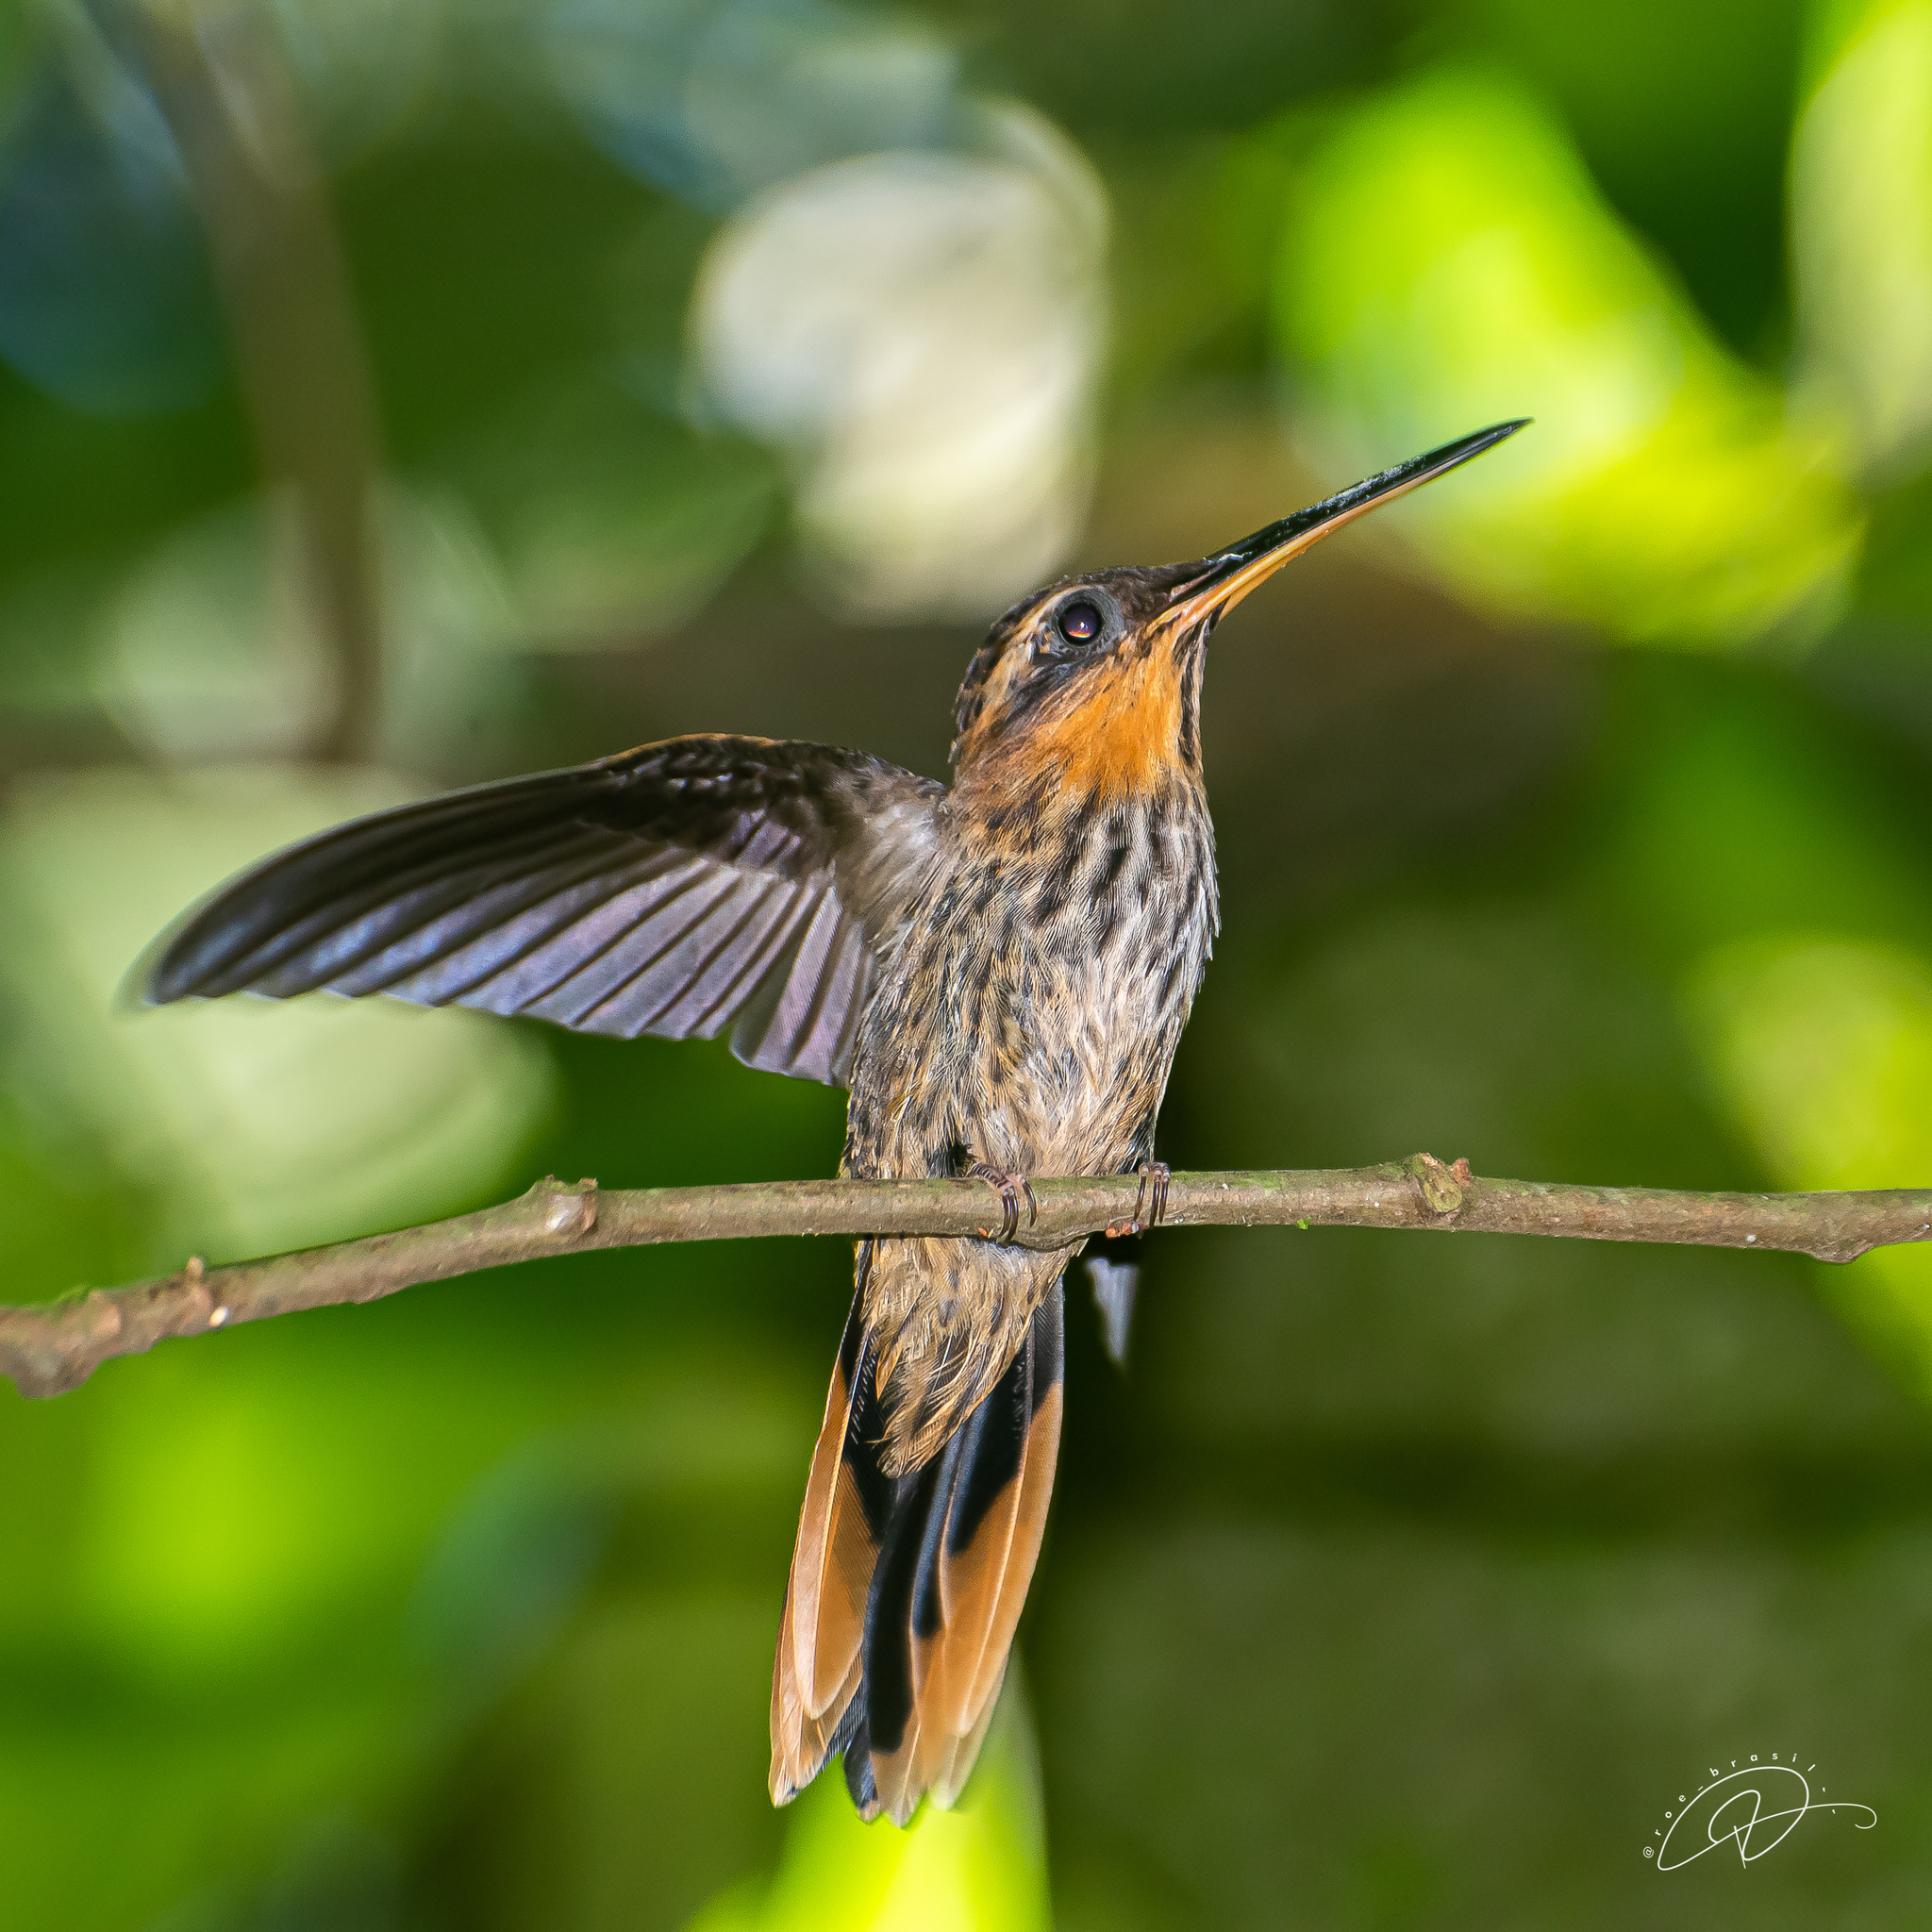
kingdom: Animalia
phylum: Chordata
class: Aves
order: Apodiformes
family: Trochilidae
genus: Ramphodon
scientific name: Ramphodon naevius
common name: Saw-billed hermit
